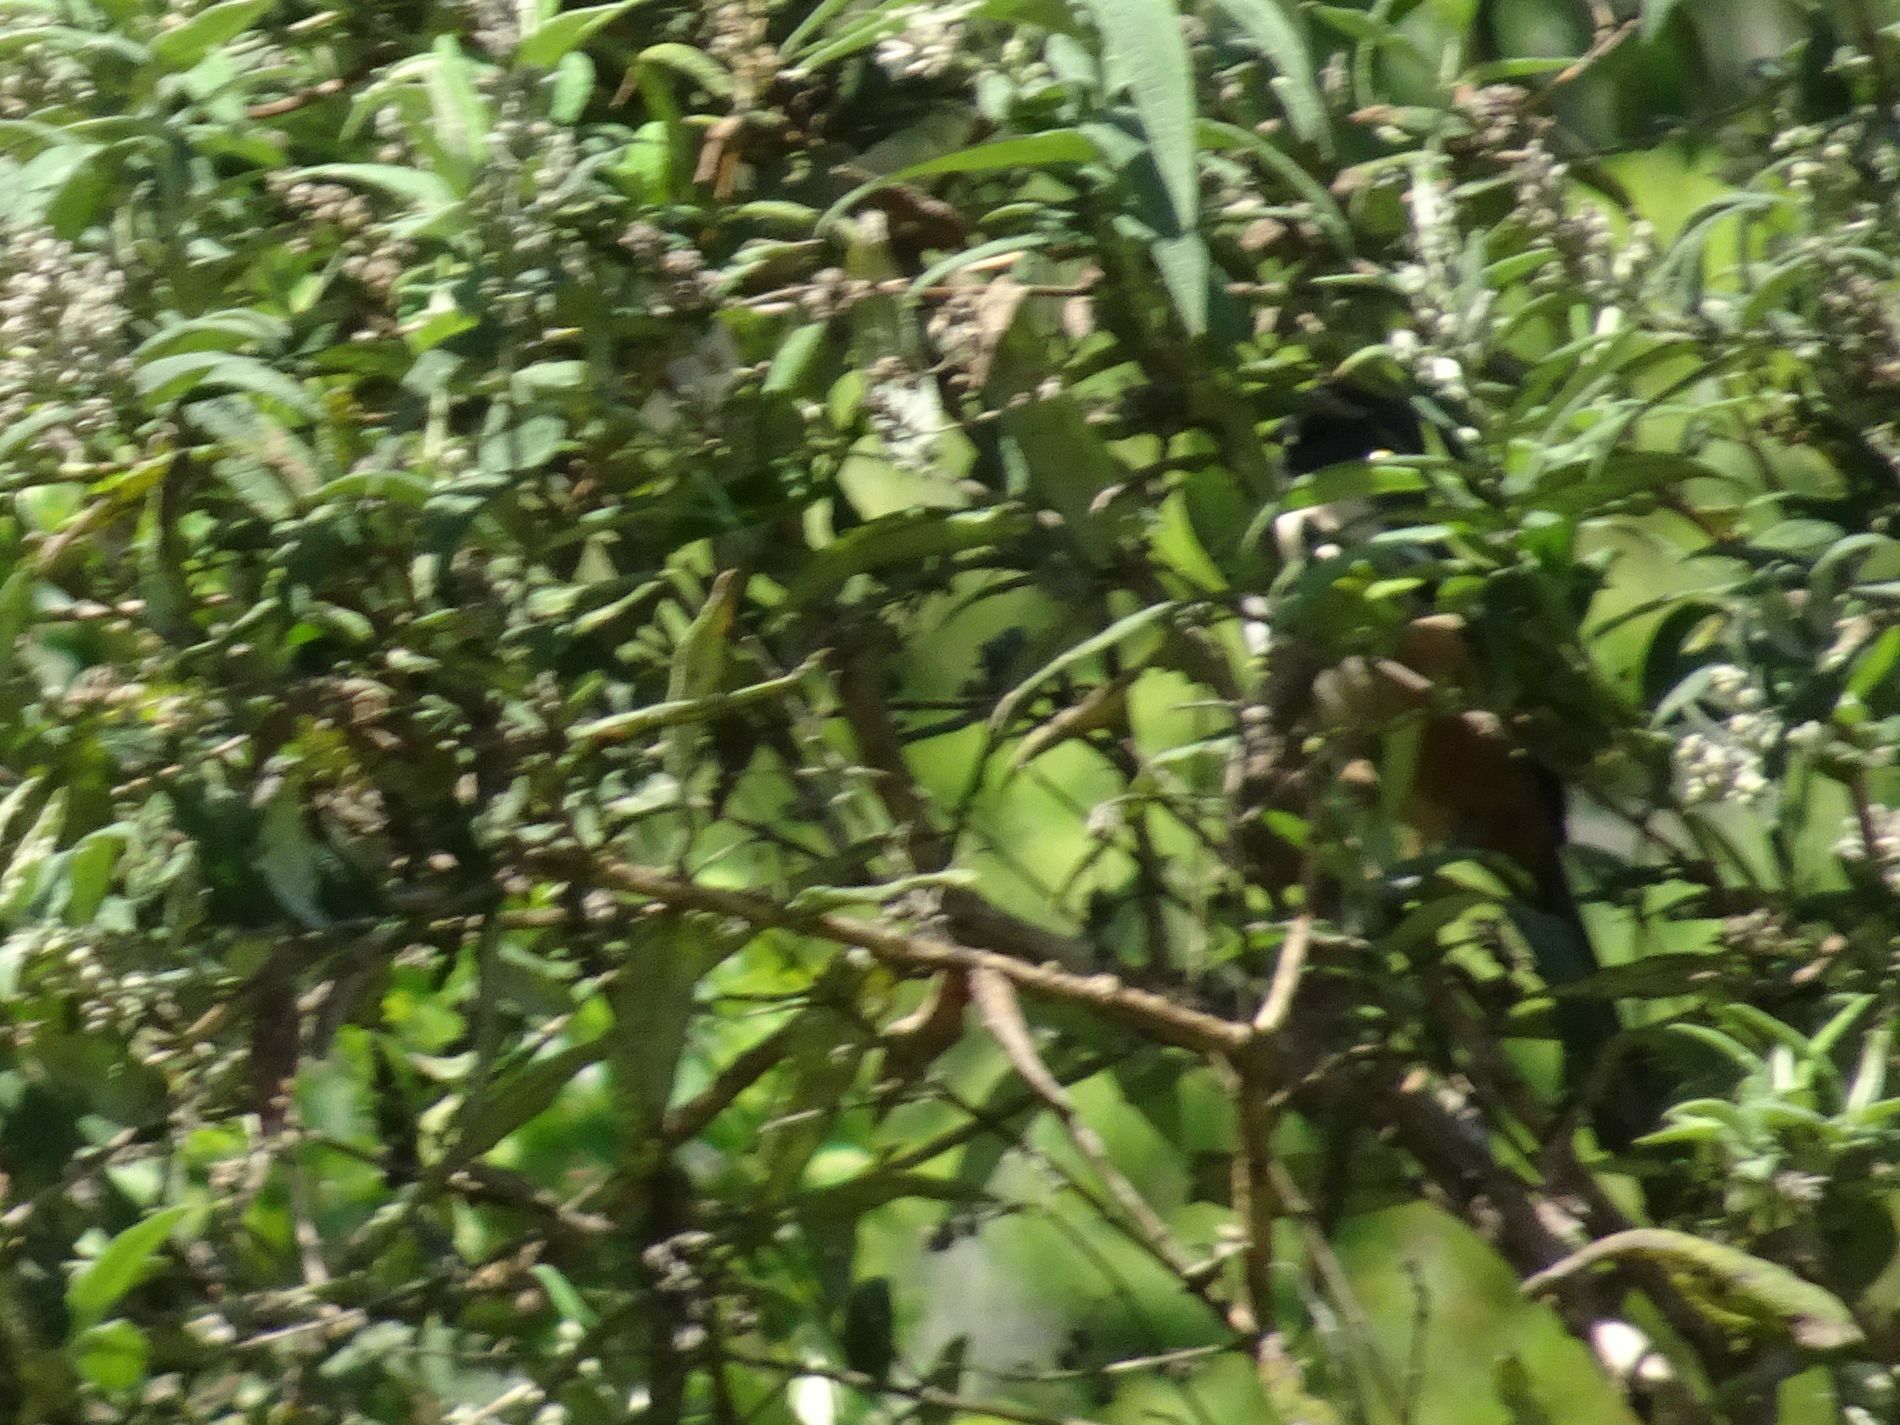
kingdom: Animalia
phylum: Chordata
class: Aves
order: Passeriformes
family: Malaconotidae
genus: Laniarius
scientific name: Laniarius ferrugineus
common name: Southern boubou
